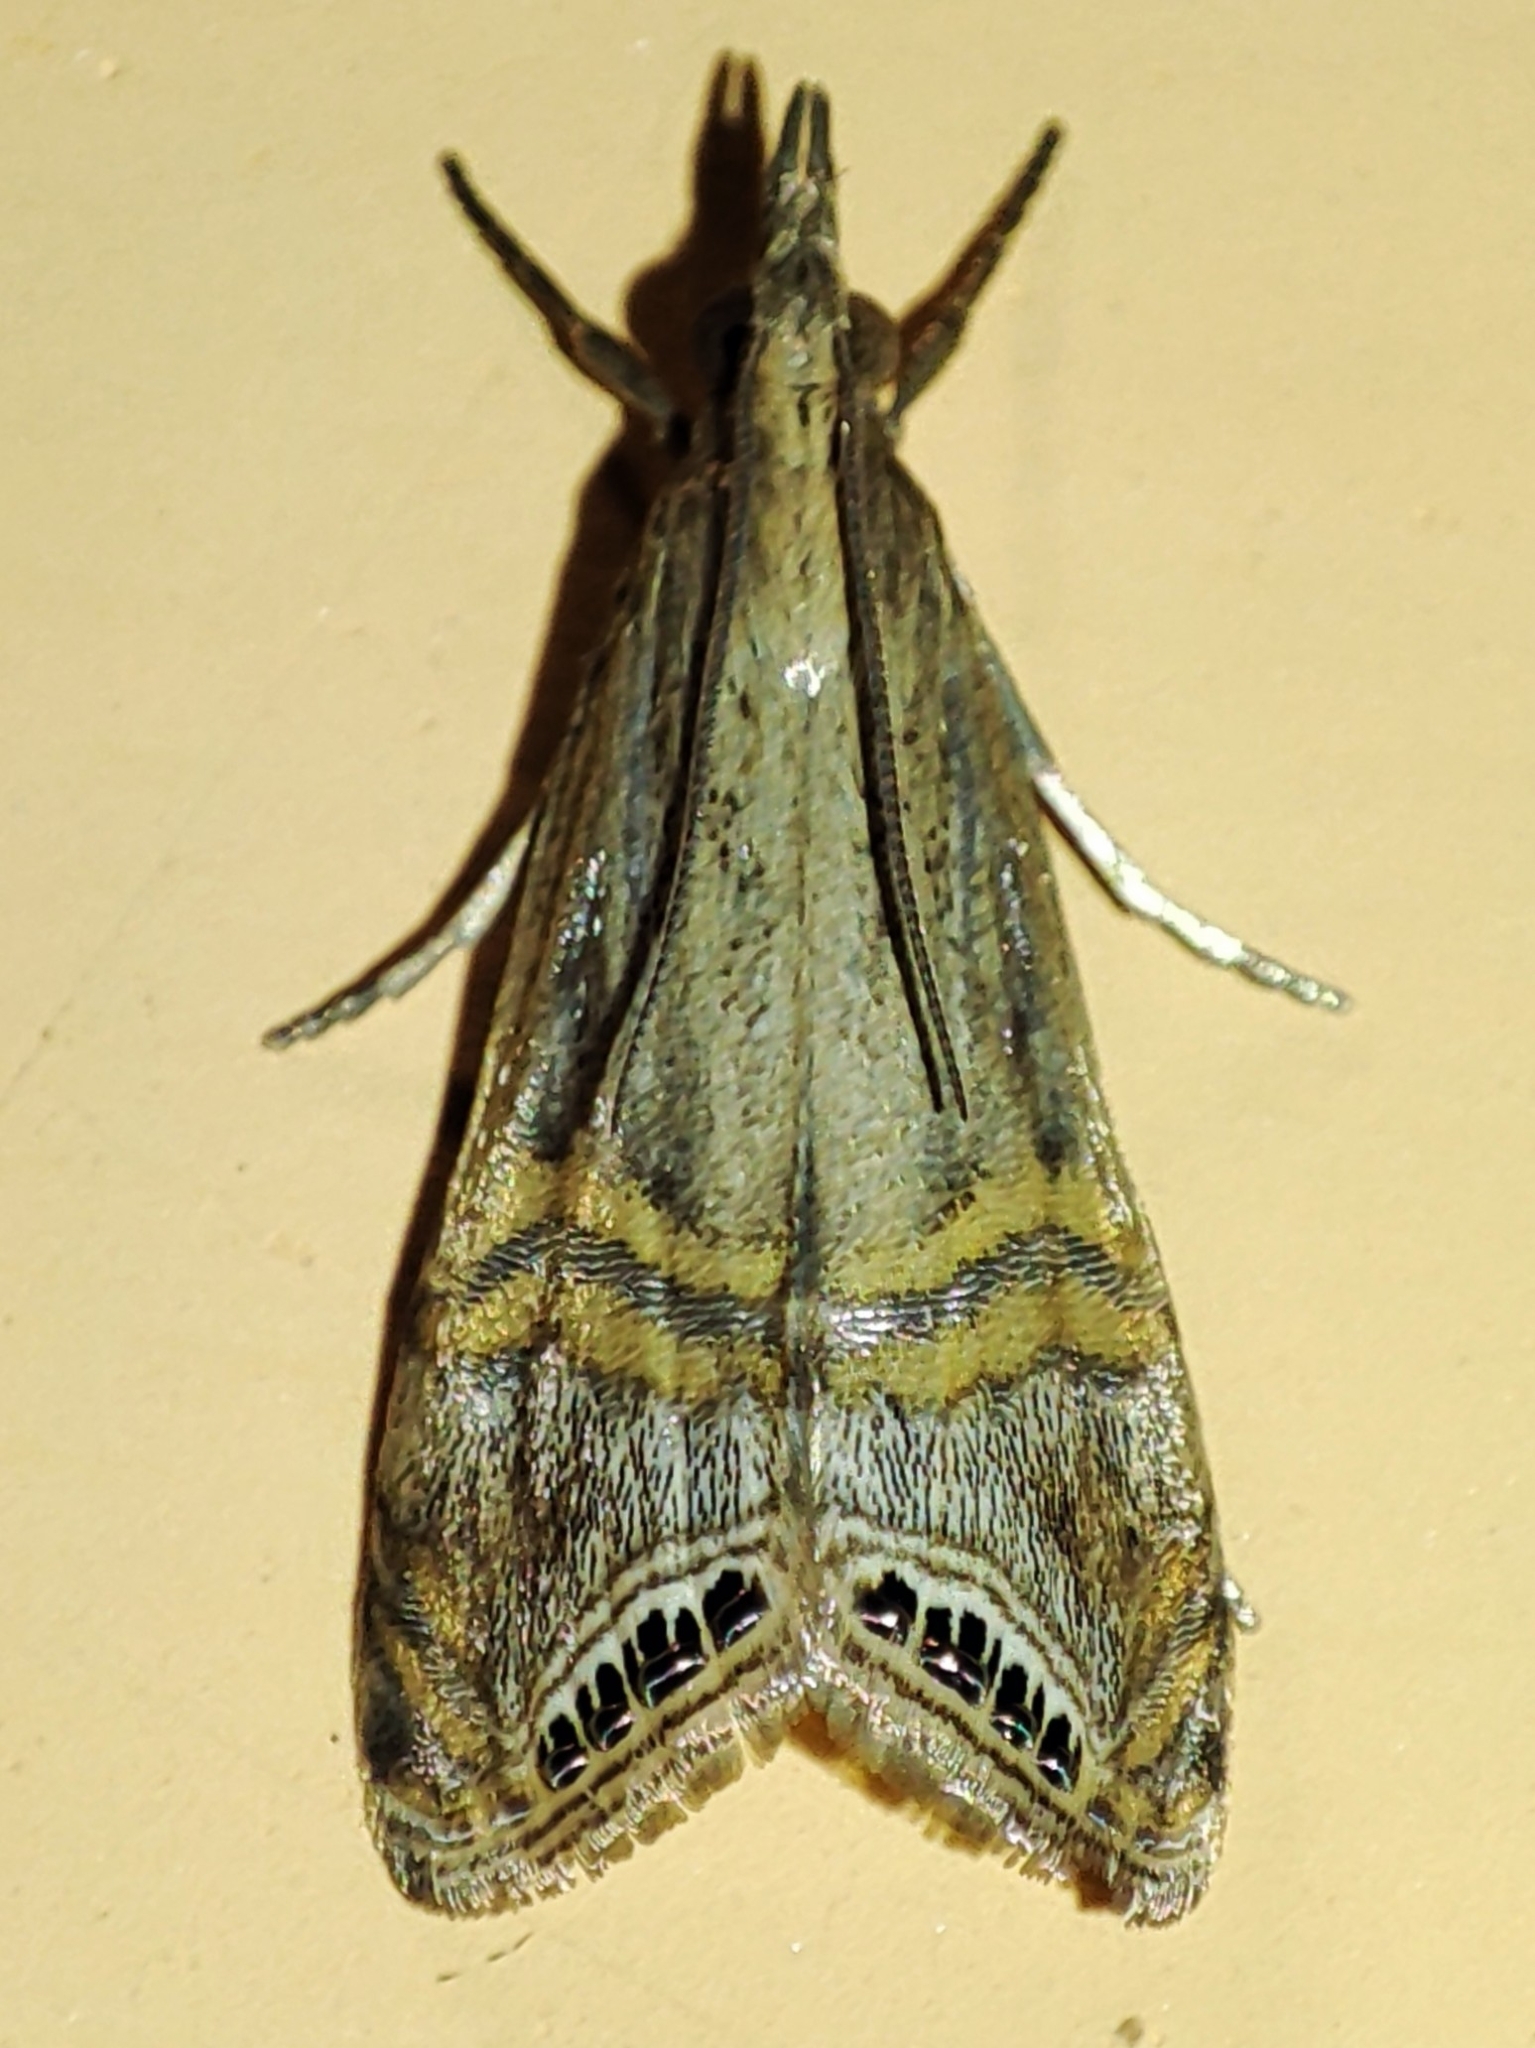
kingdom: Animalia
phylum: Arthropoda
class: Insecta
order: Lepidoptera
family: Crambidae
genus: Euchromius
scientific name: Euchromius ocellea
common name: Necklace veneer moth
